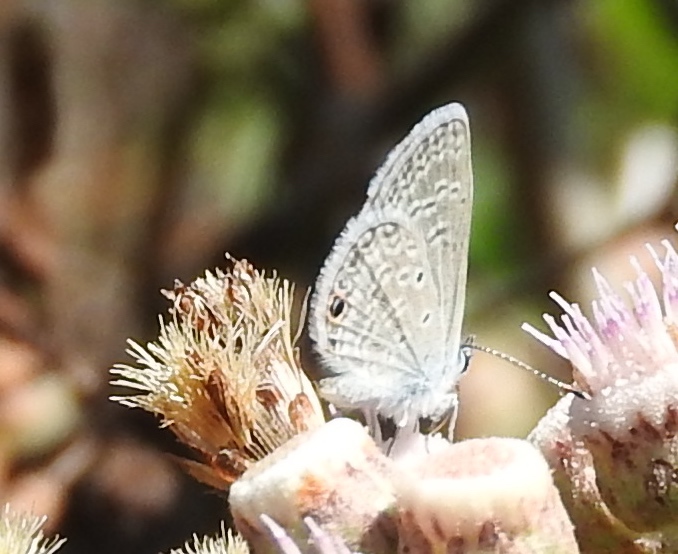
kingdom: Animalia
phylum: Arthropoda
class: Insecta
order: Lepidoptera
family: Lycaenidae
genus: Echinargus
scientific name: Echinargus isola
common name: Reakirt's blue
